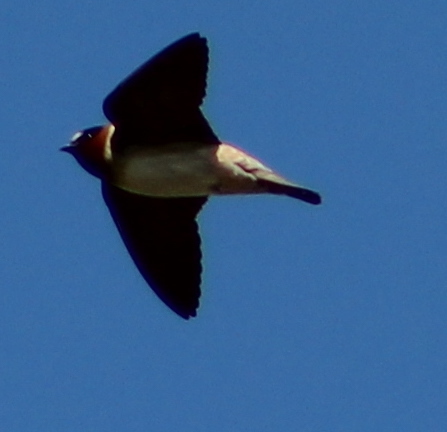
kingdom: Animalia
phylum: Chordata
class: Aves
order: Passeriformes
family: Hirundinidae
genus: Petrochelidon
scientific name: Petrochelidon pyrrhonota
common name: American cliff swallow
